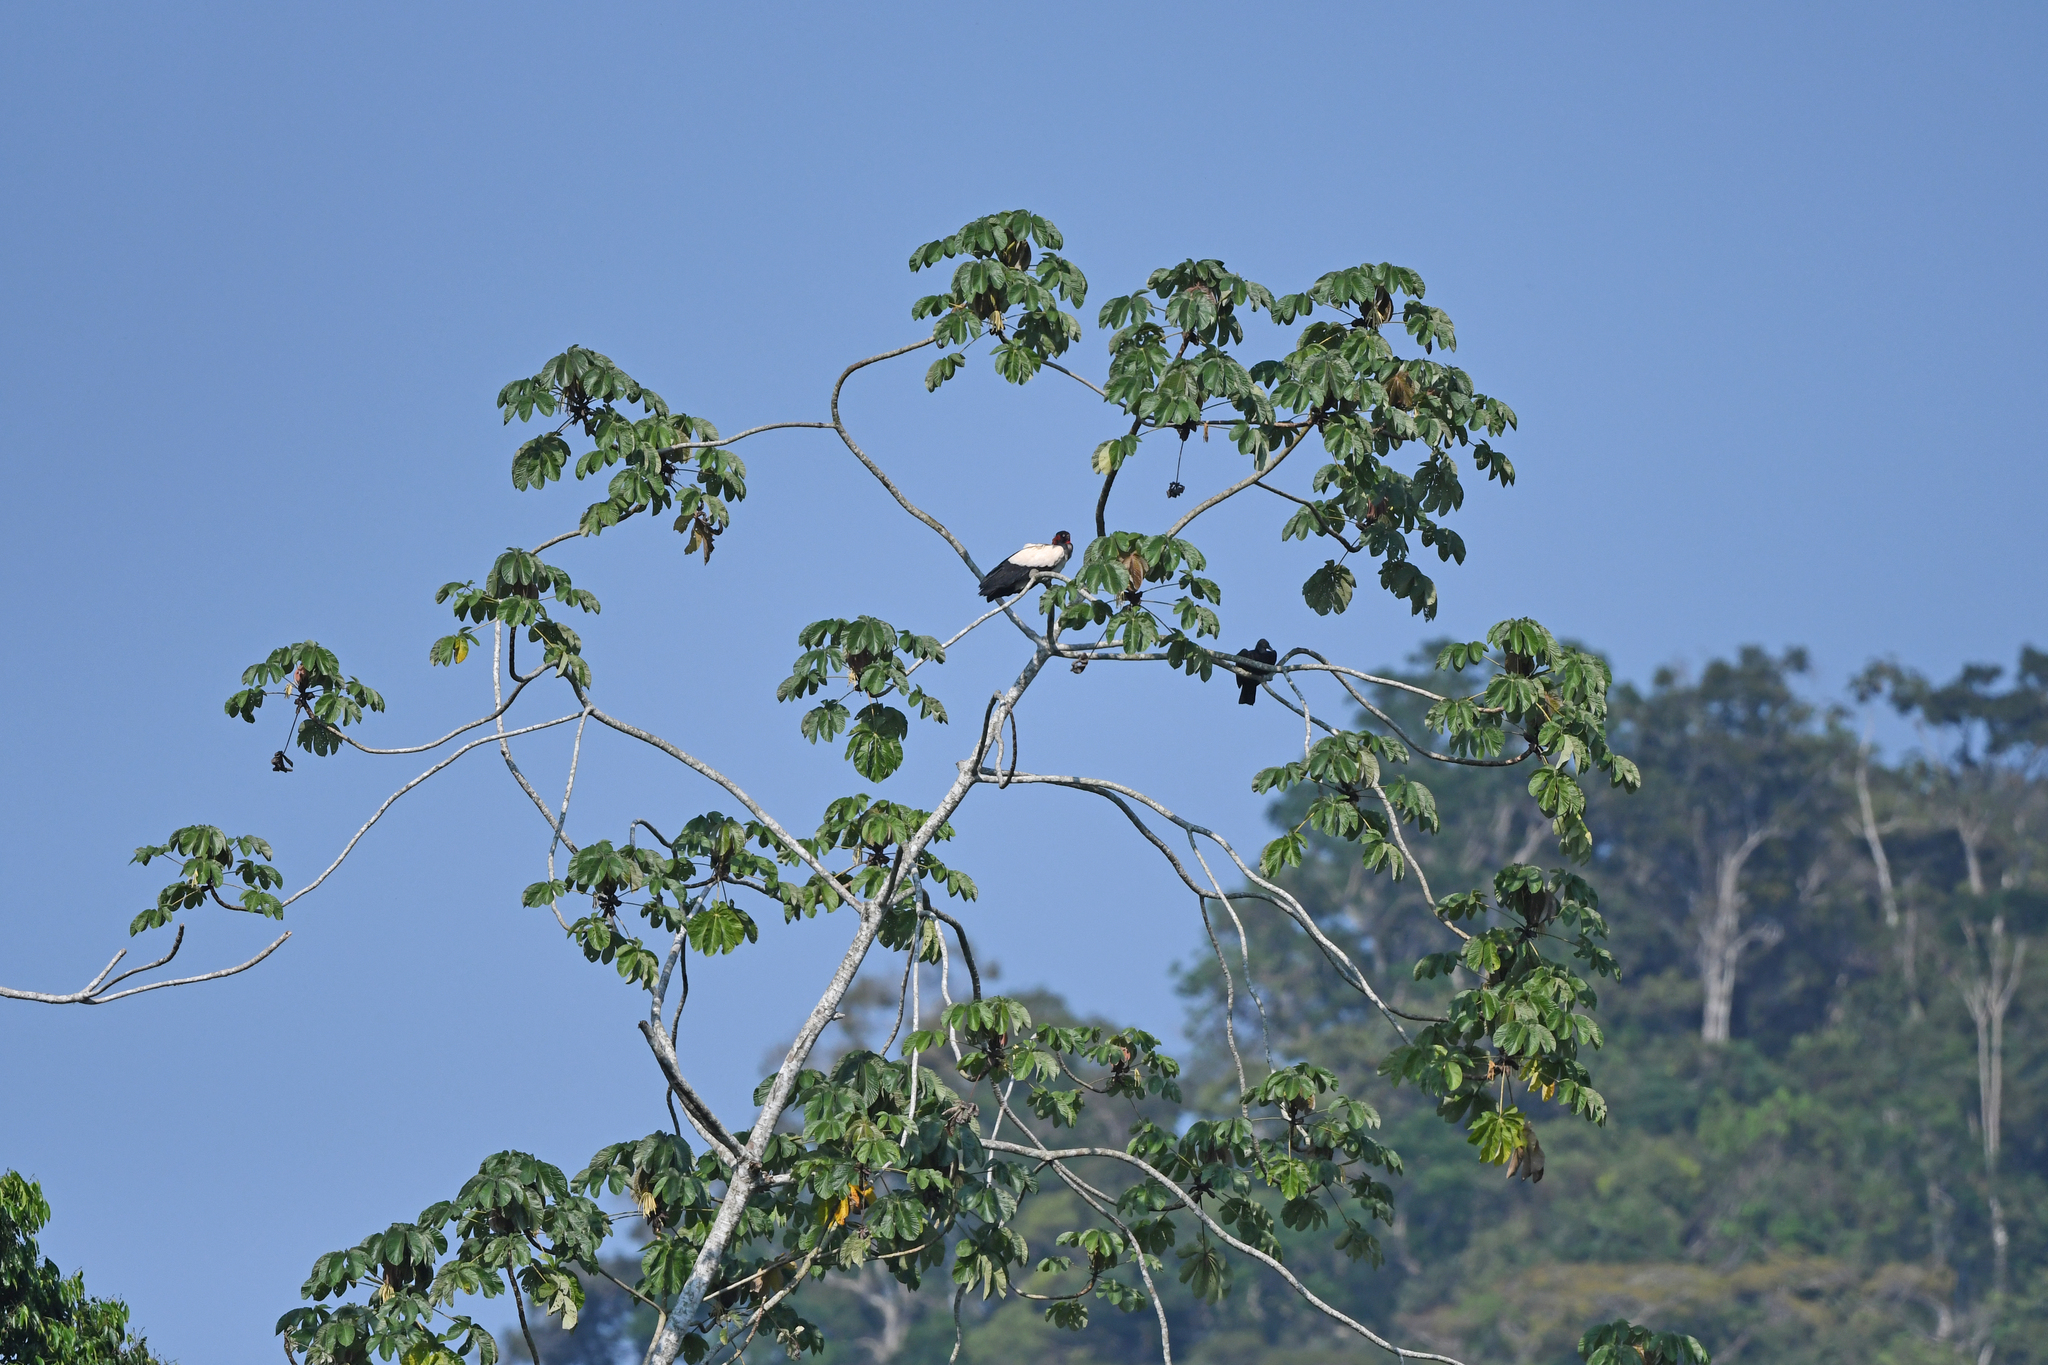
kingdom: Animalia
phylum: Chordata
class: Aves
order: Accipitriformes
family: Cathartidae
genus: Sarcoramphus
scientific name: Sarcoramphus papa
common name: King vulture
